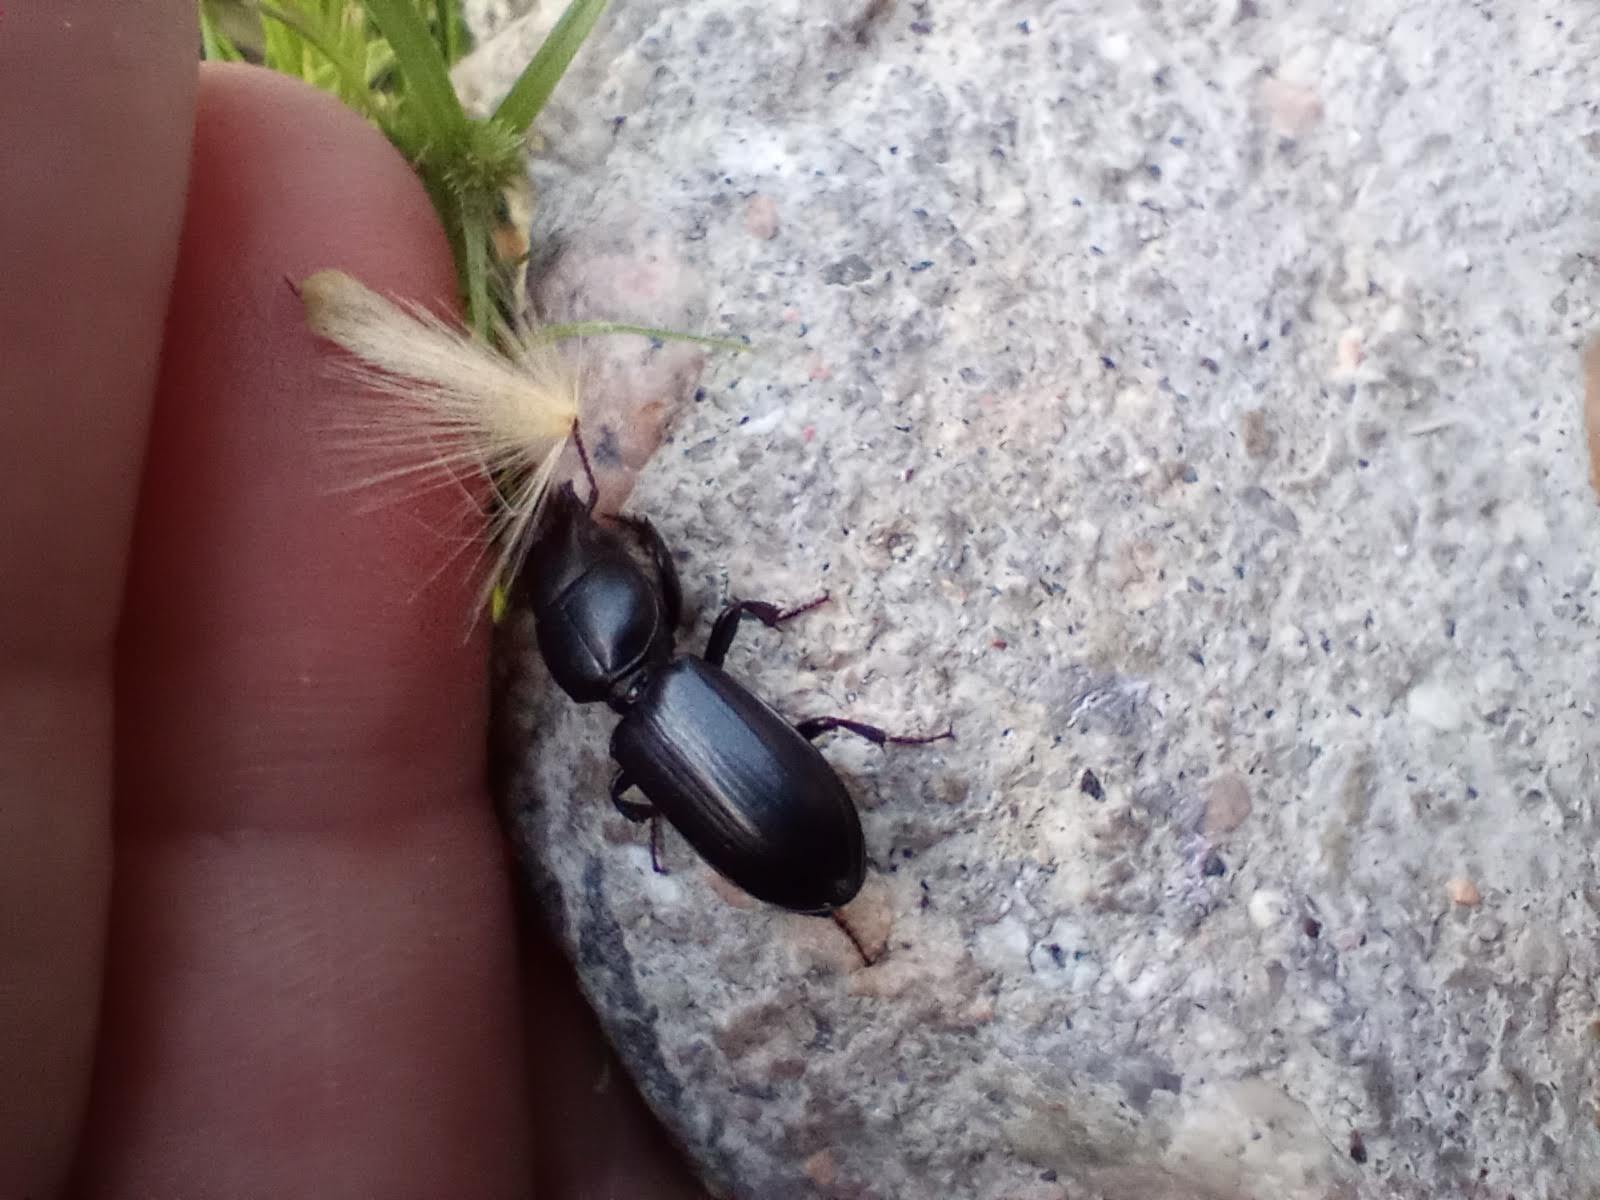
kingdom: Animalia
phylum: Arthropoda
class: Insecta
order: Coleoptera
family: Carabidae
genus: Scarites
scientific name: Scarites subterraneus
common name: Big-headed ground beetle
